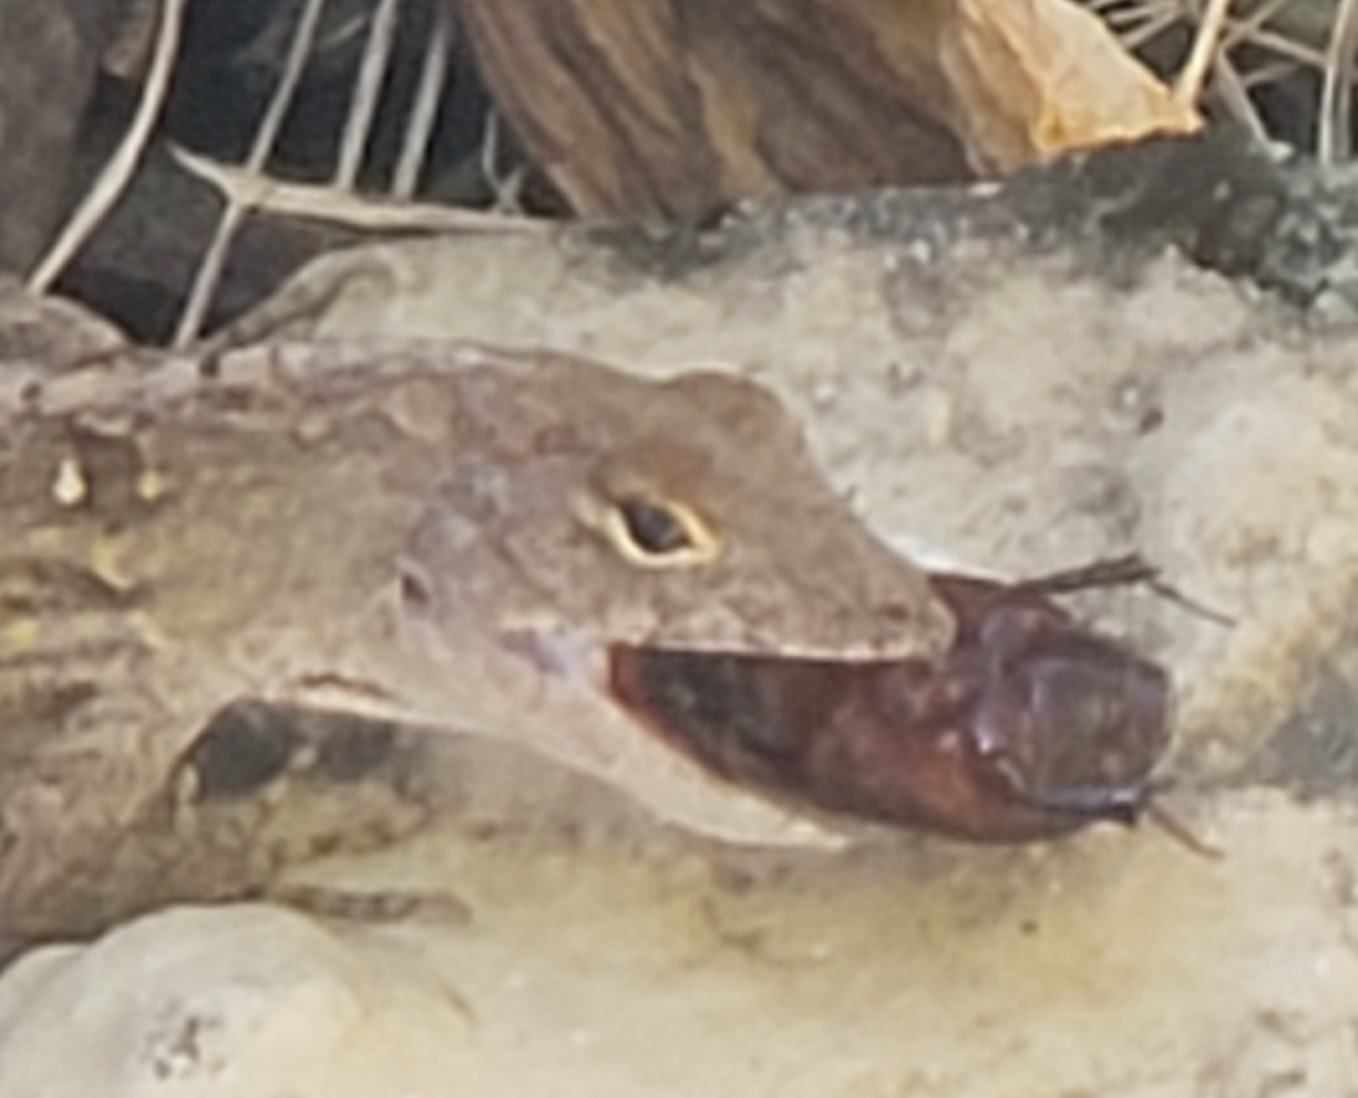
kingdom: Animalia
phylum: Chordata
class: Squamata
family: Dactyloidae
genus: Anolis
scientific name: Anolis sagrei
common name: Brown anole
